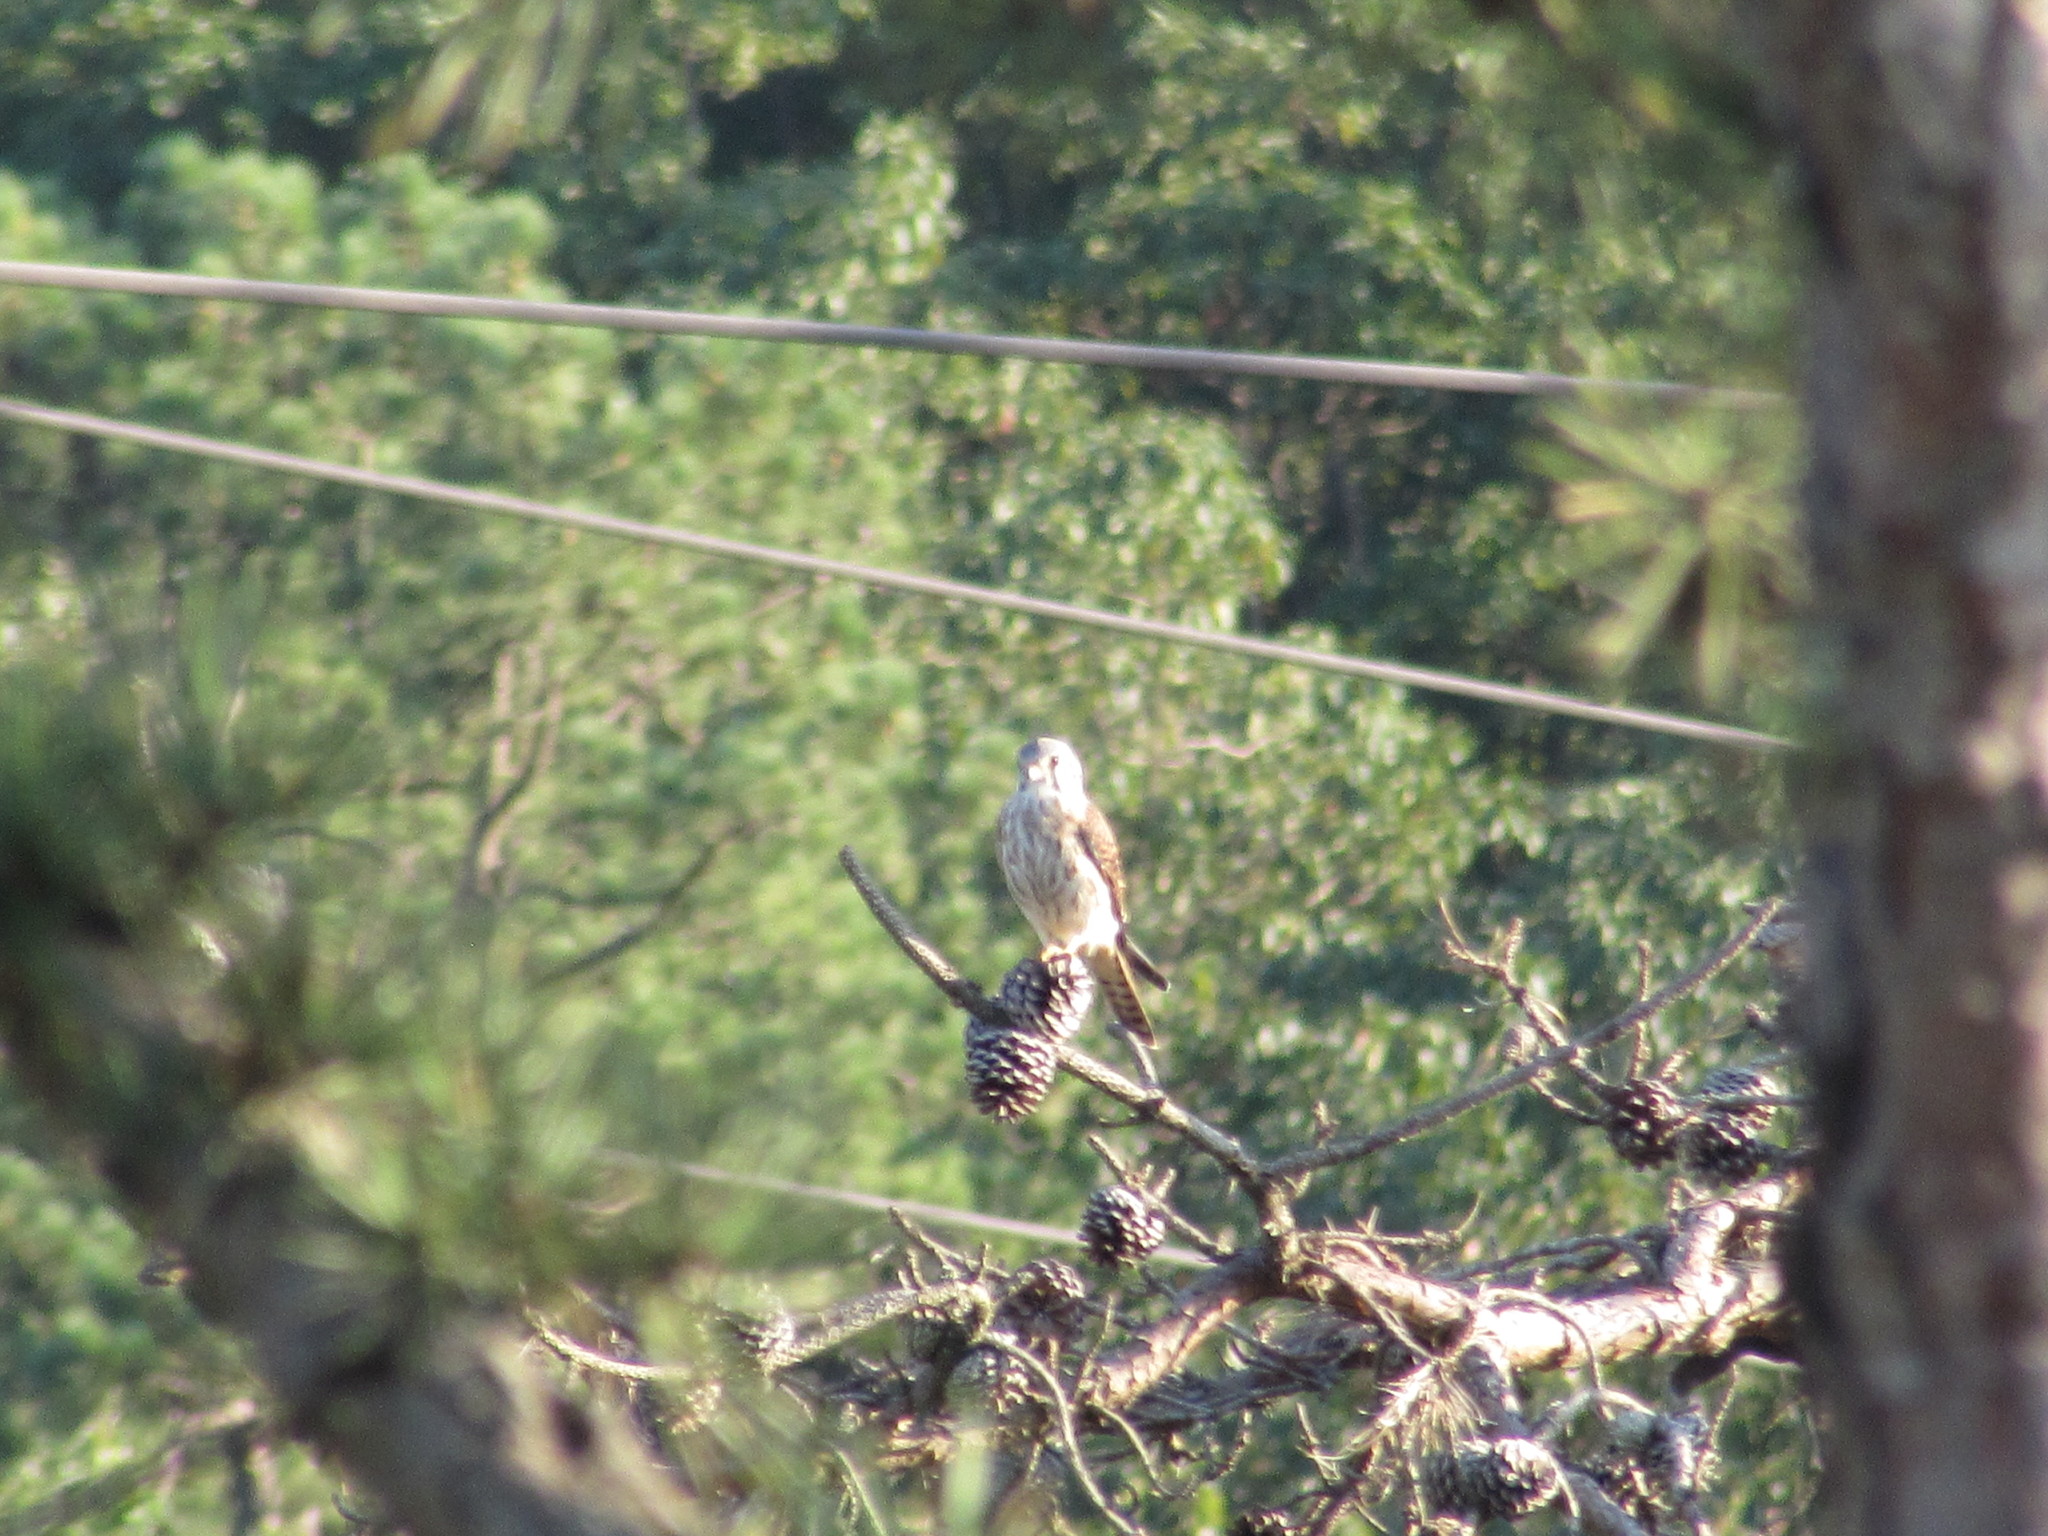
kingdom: Animalia
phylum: Chordata
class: Aves
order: Falconiformes
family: Falconidae
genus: Falco
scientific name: Falco sparverius
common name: American kestrel
